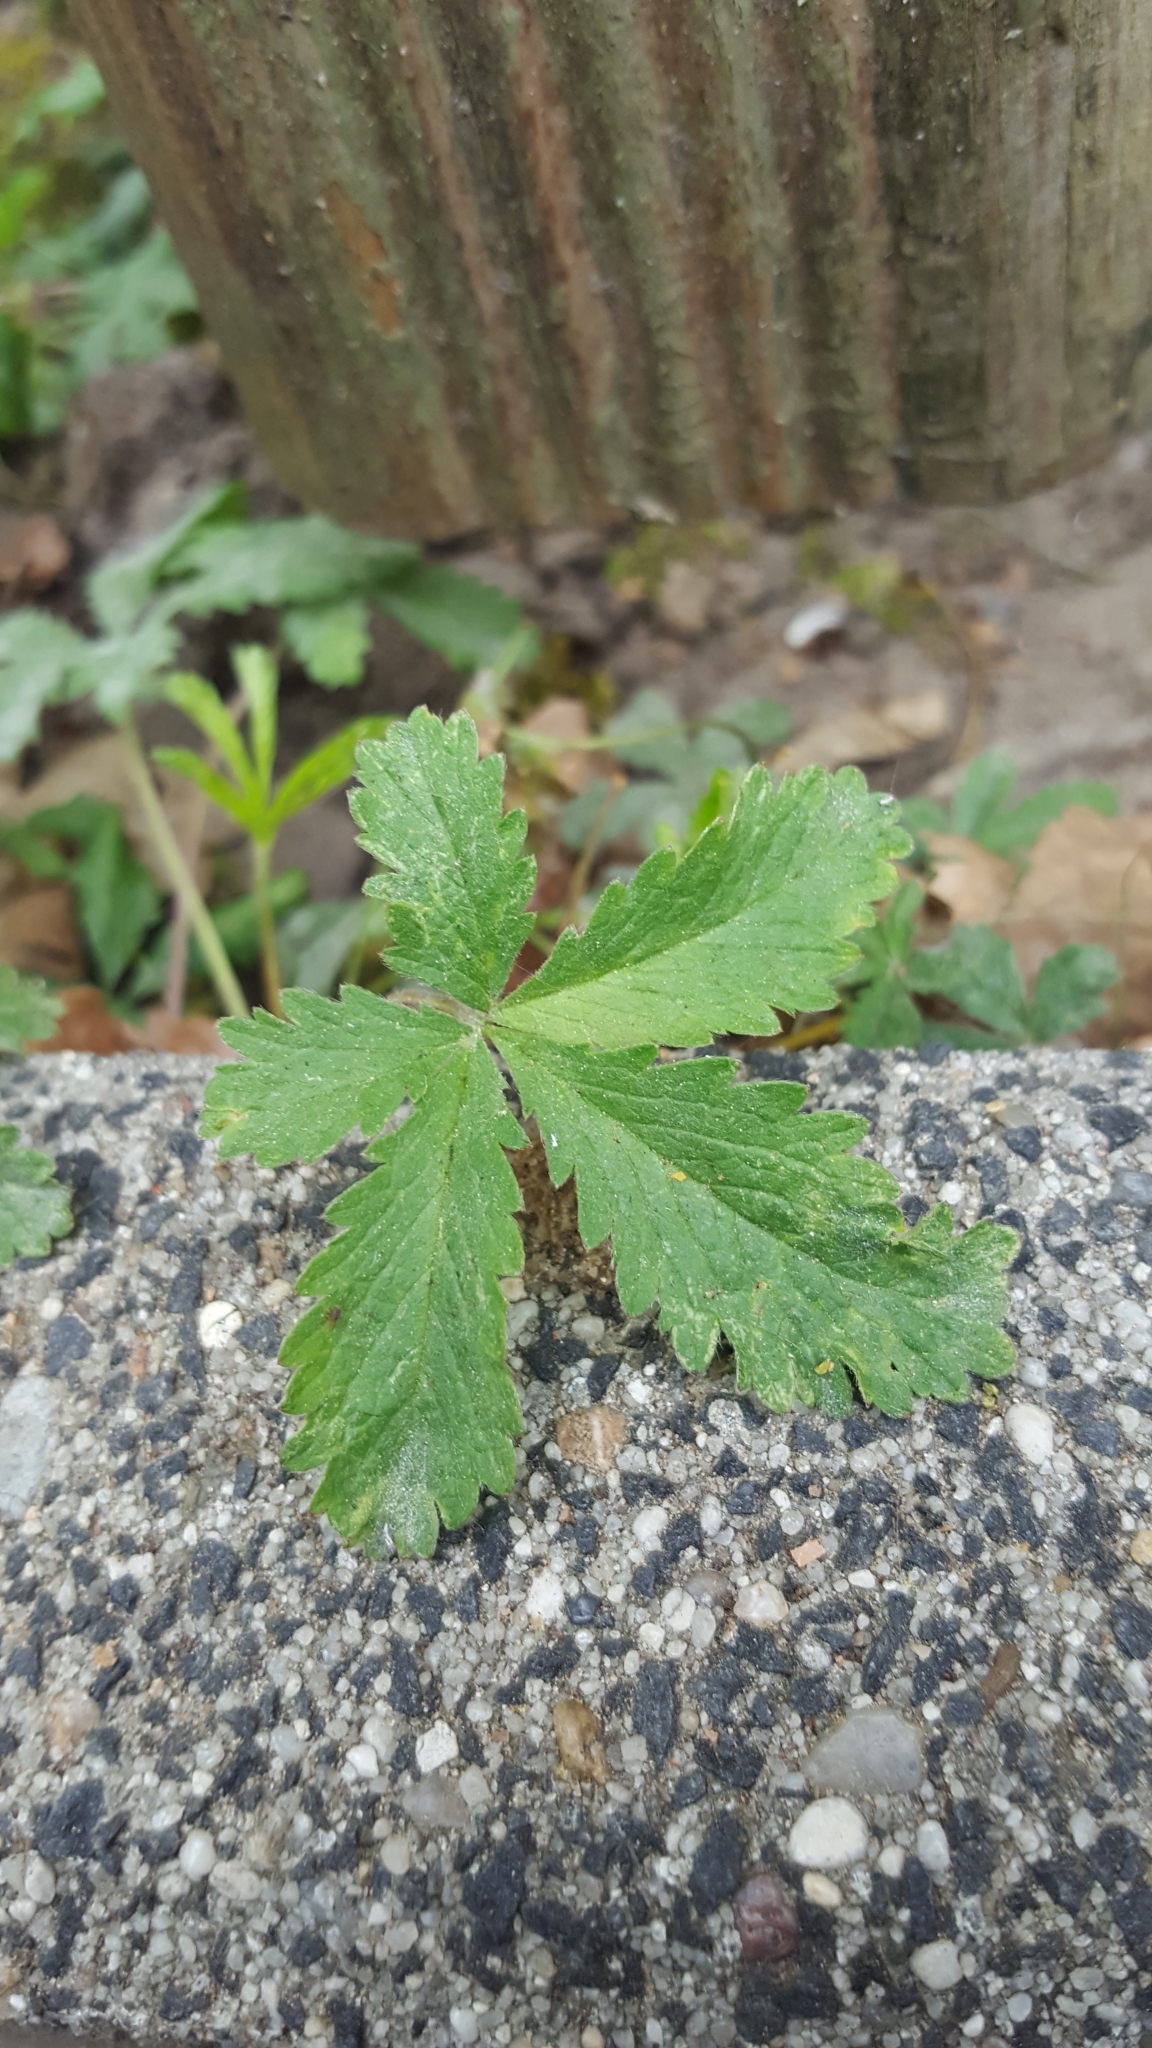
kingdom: Plantae
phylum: Tracheophyta
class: Magnoliopsida
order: Rosales
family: Rosaceae
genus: Potentilla
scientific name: Potentilla reptans
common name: Creeping cinquefoil
